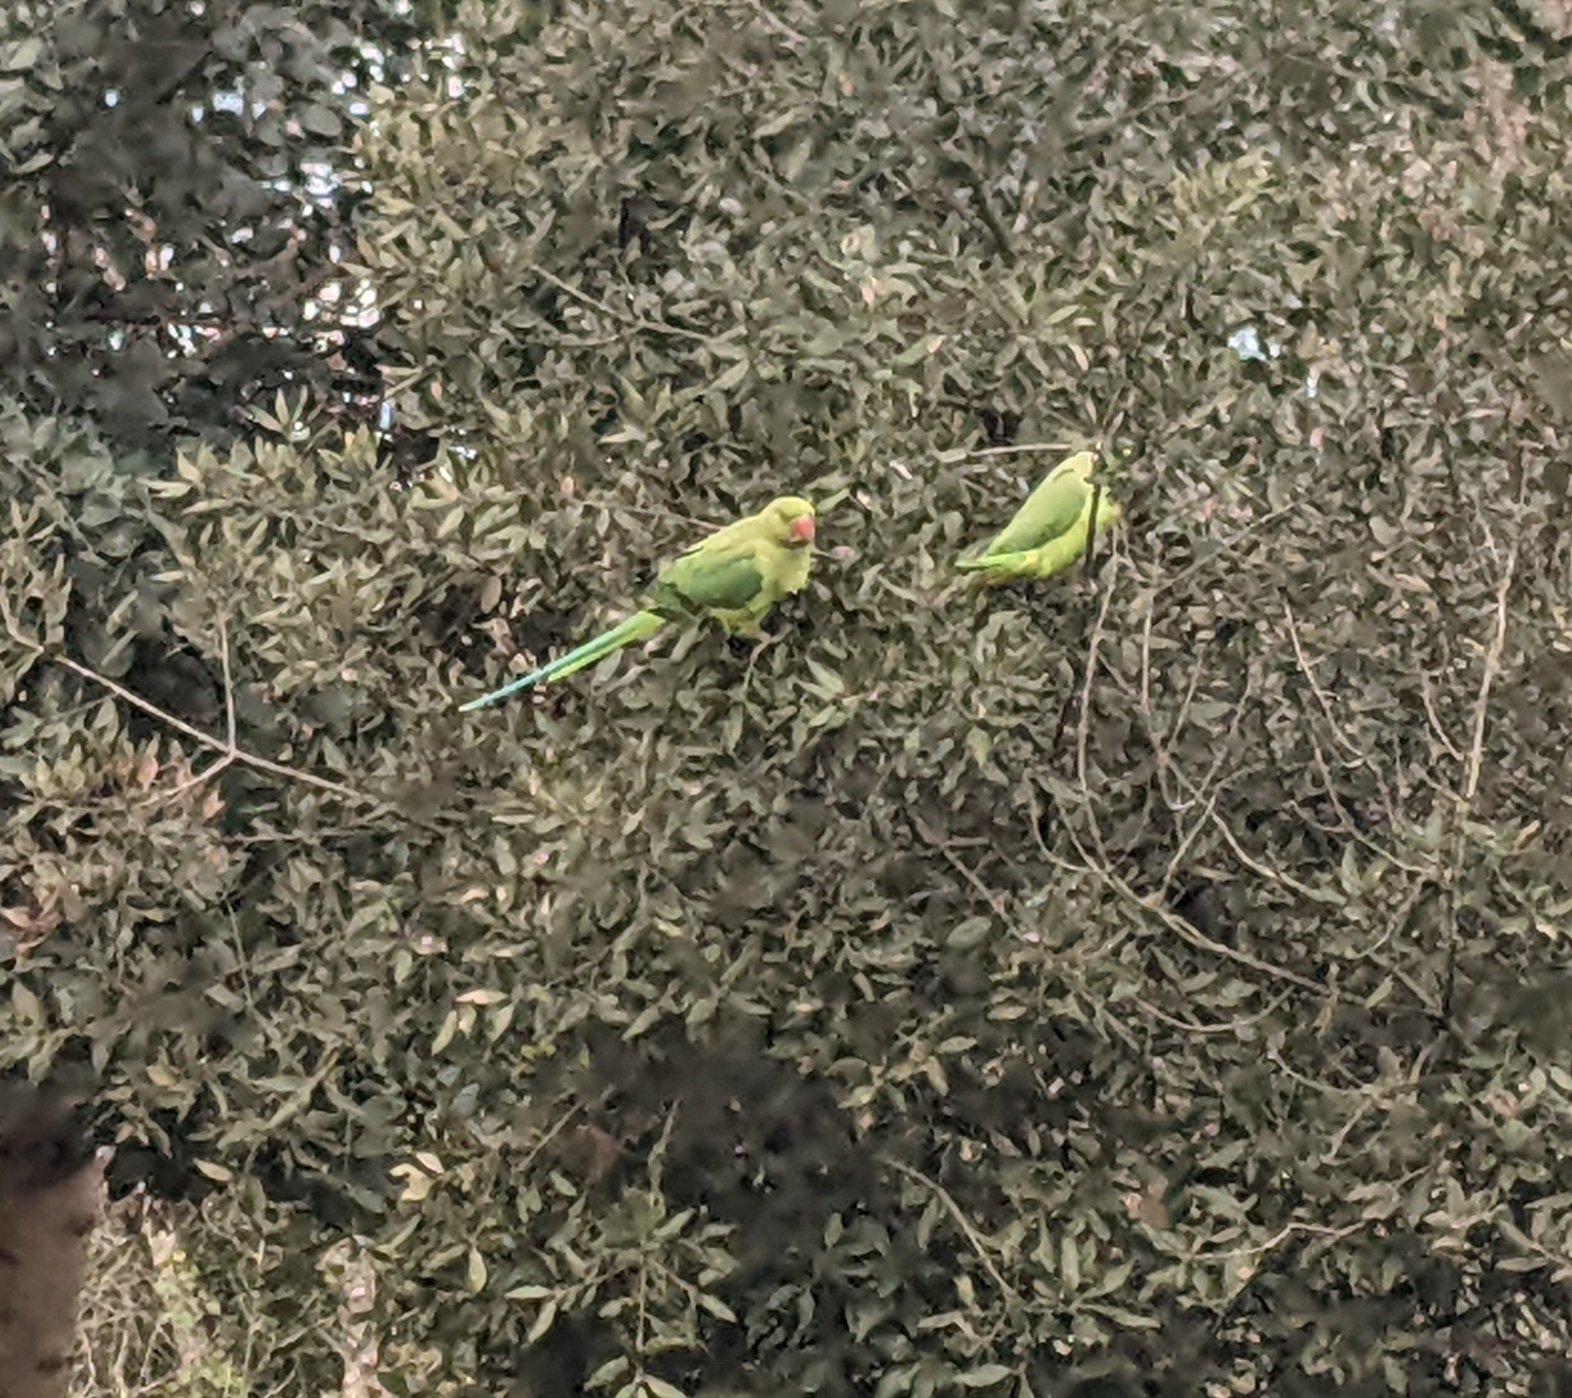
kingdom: Animalia
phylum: Chordata
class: Aves
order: Psittaciformes
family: Psittacidae
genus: Psittacula
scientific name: Psittacula krameri
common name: Rose-ringed parakeet
